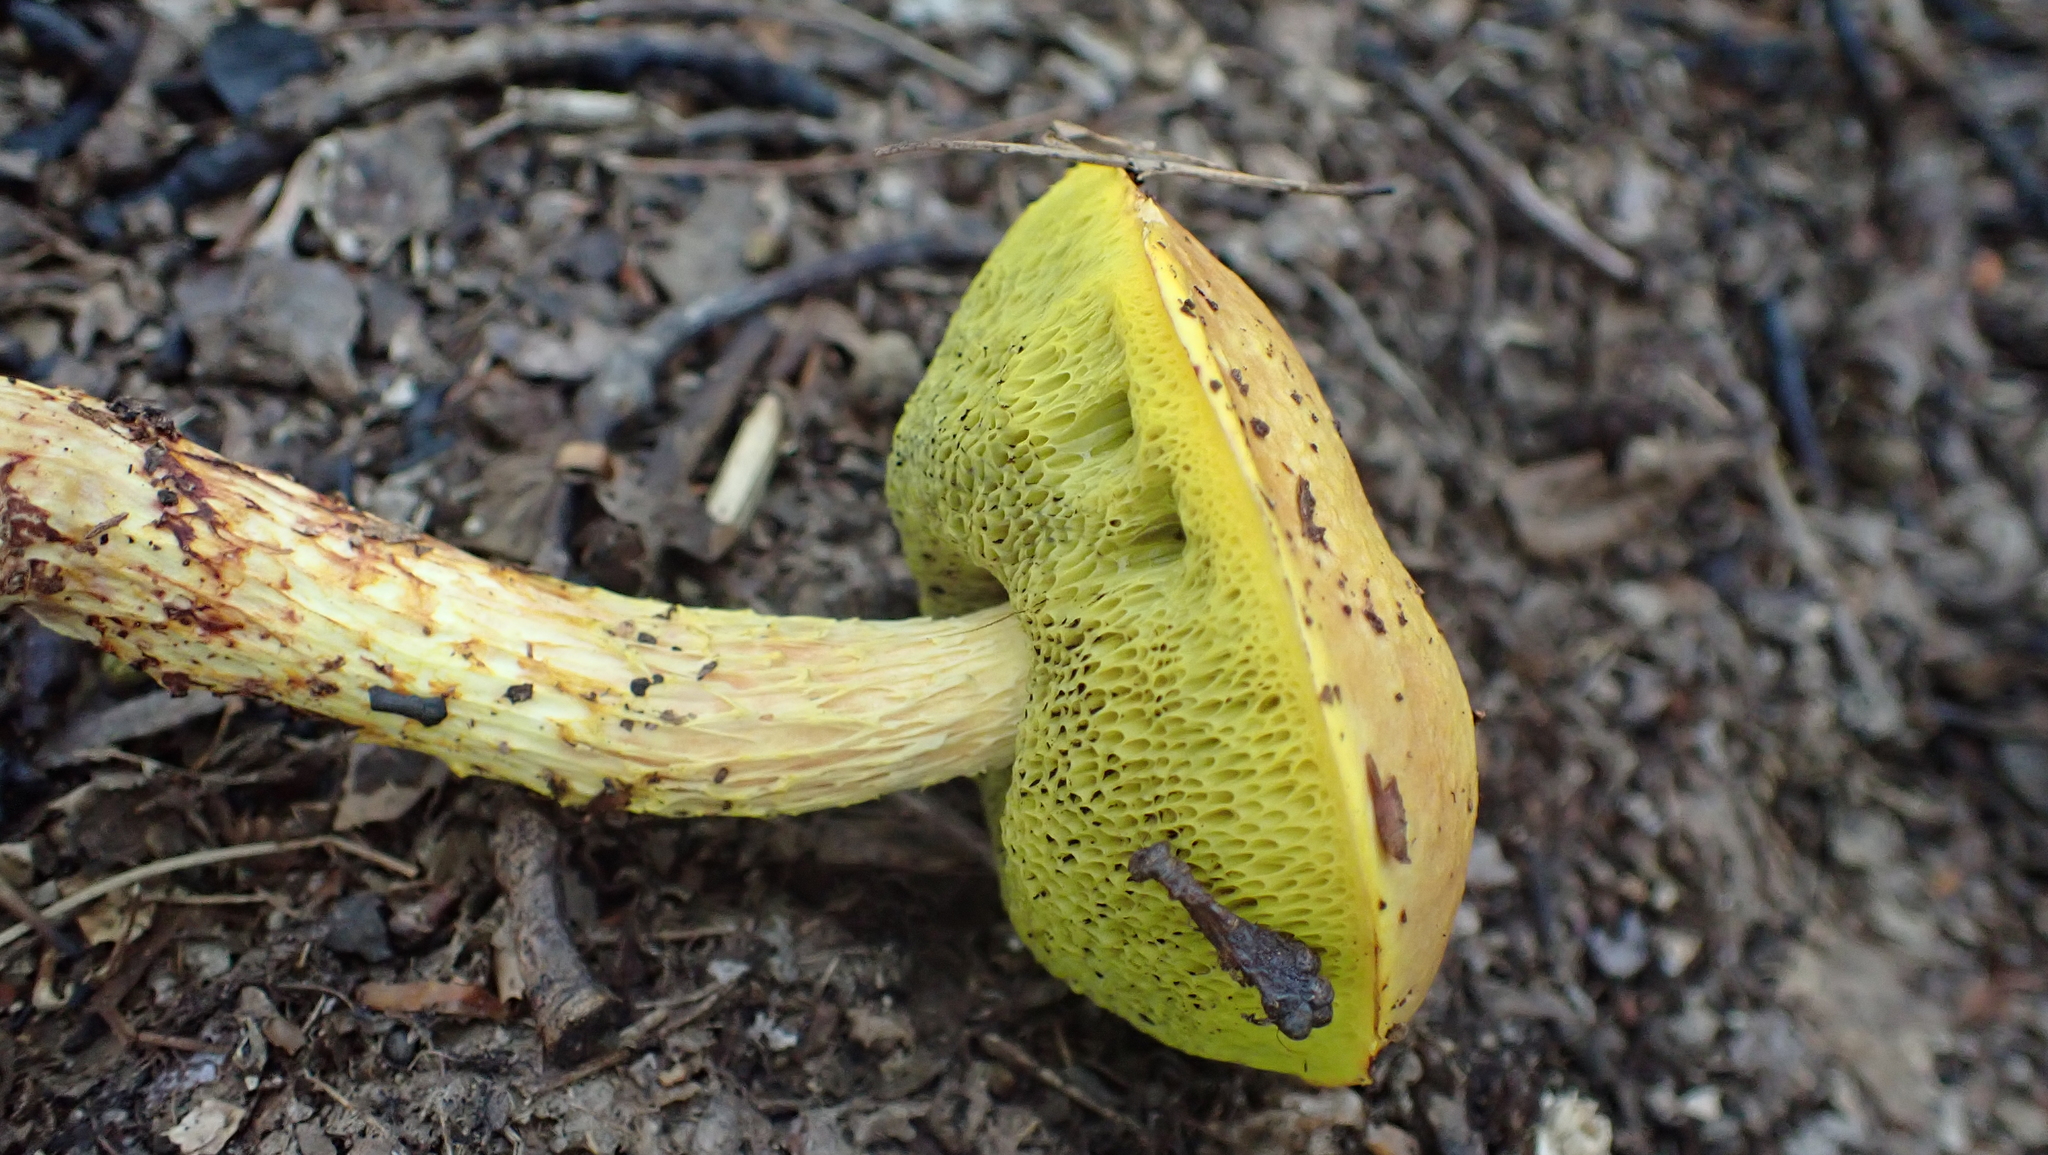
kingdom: Fungi
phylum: Basidiomycota
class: Agaricomycetes
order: Boletales
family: Boletaceae
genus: Aureoboletus
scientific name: Aureoboletus betula
